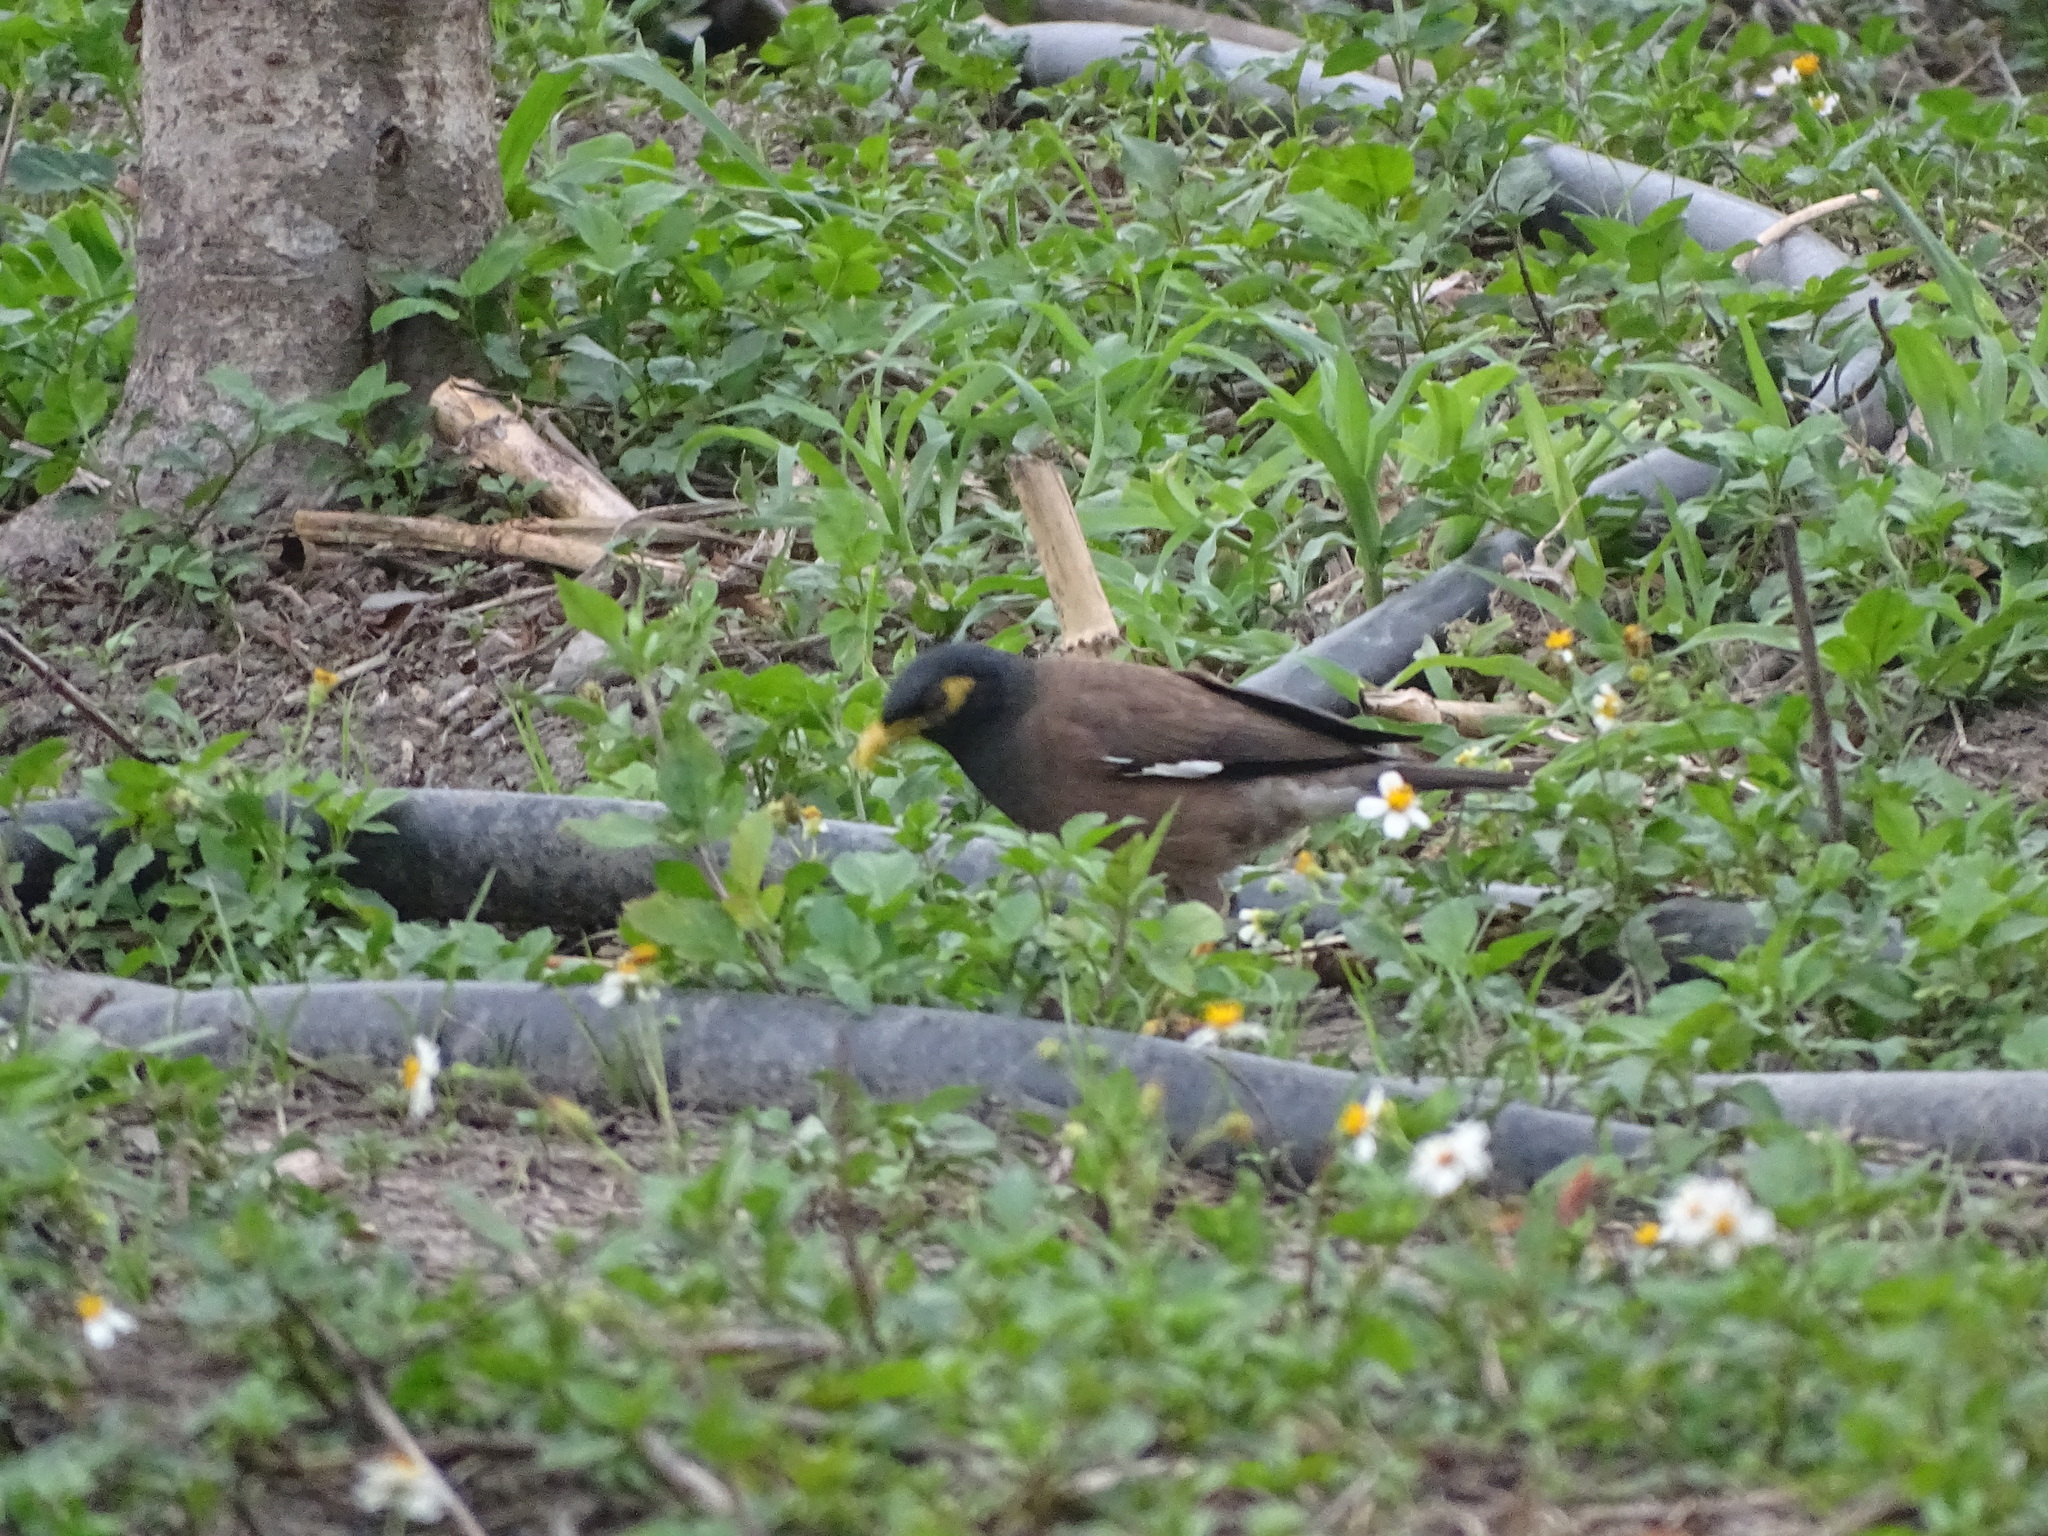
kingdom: Animalia
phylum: Chordata
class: Aves
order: Passeriformes
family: Sturnidae
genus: Acridotheres
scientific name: Acridotheres tristis
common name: Common myna
